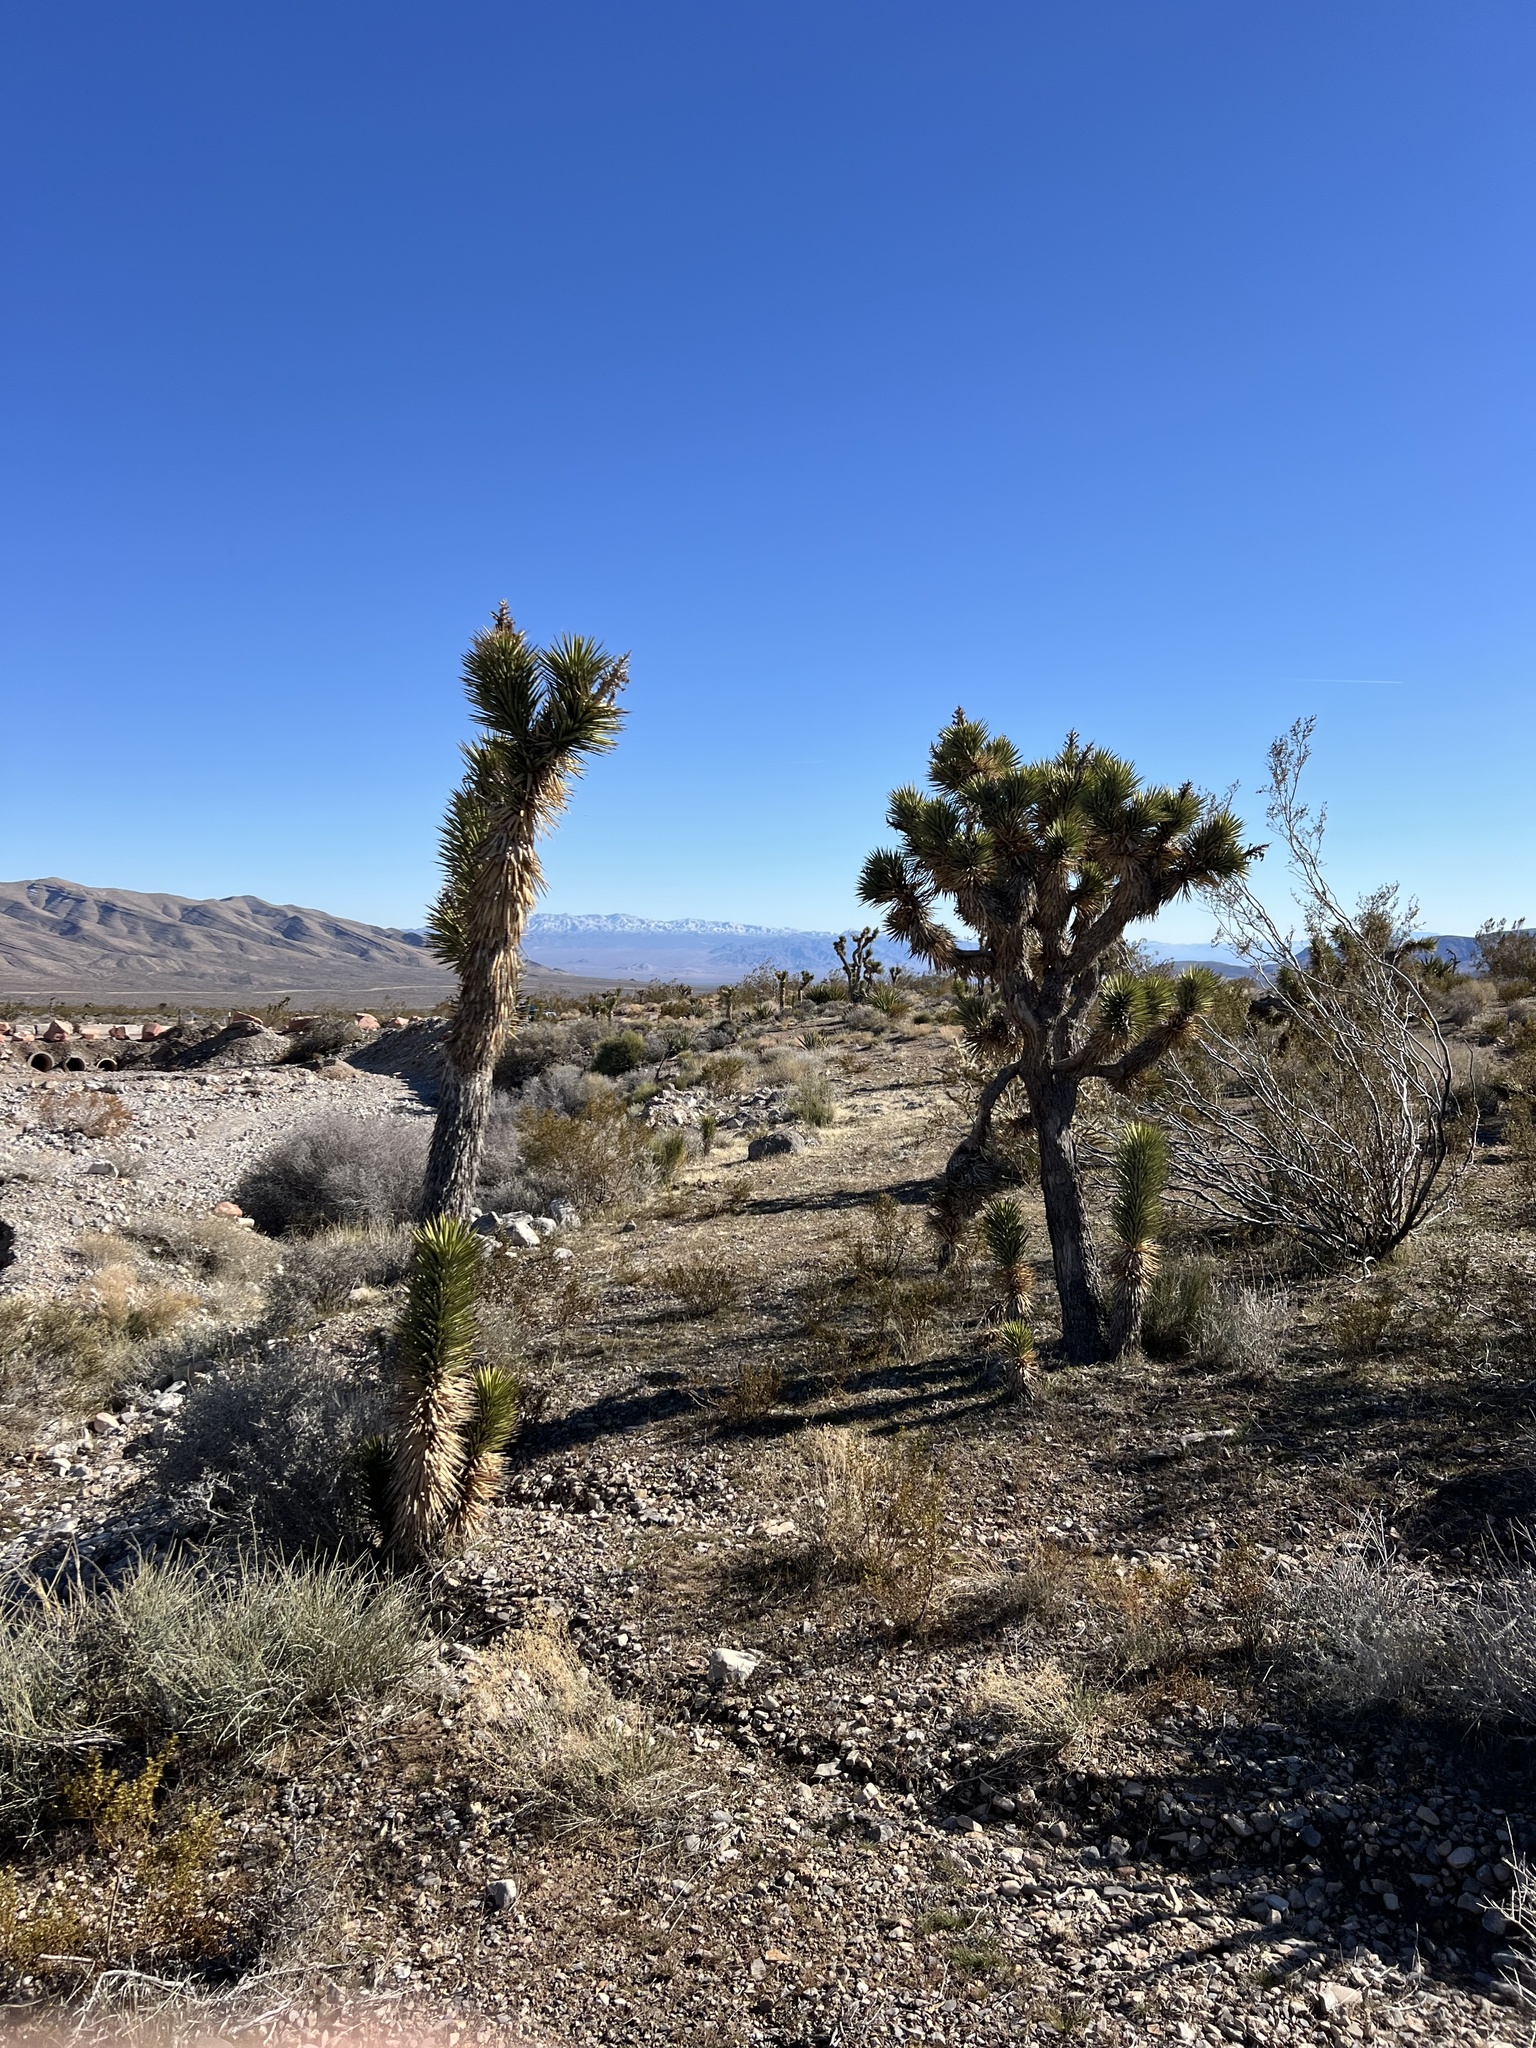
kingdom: Plantae
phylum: Tracheophyta
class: Liliopsida
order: Asparagales
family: Asparagaceae
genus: Yucca
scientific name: Yucca brevifolia
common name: Joshua tree
